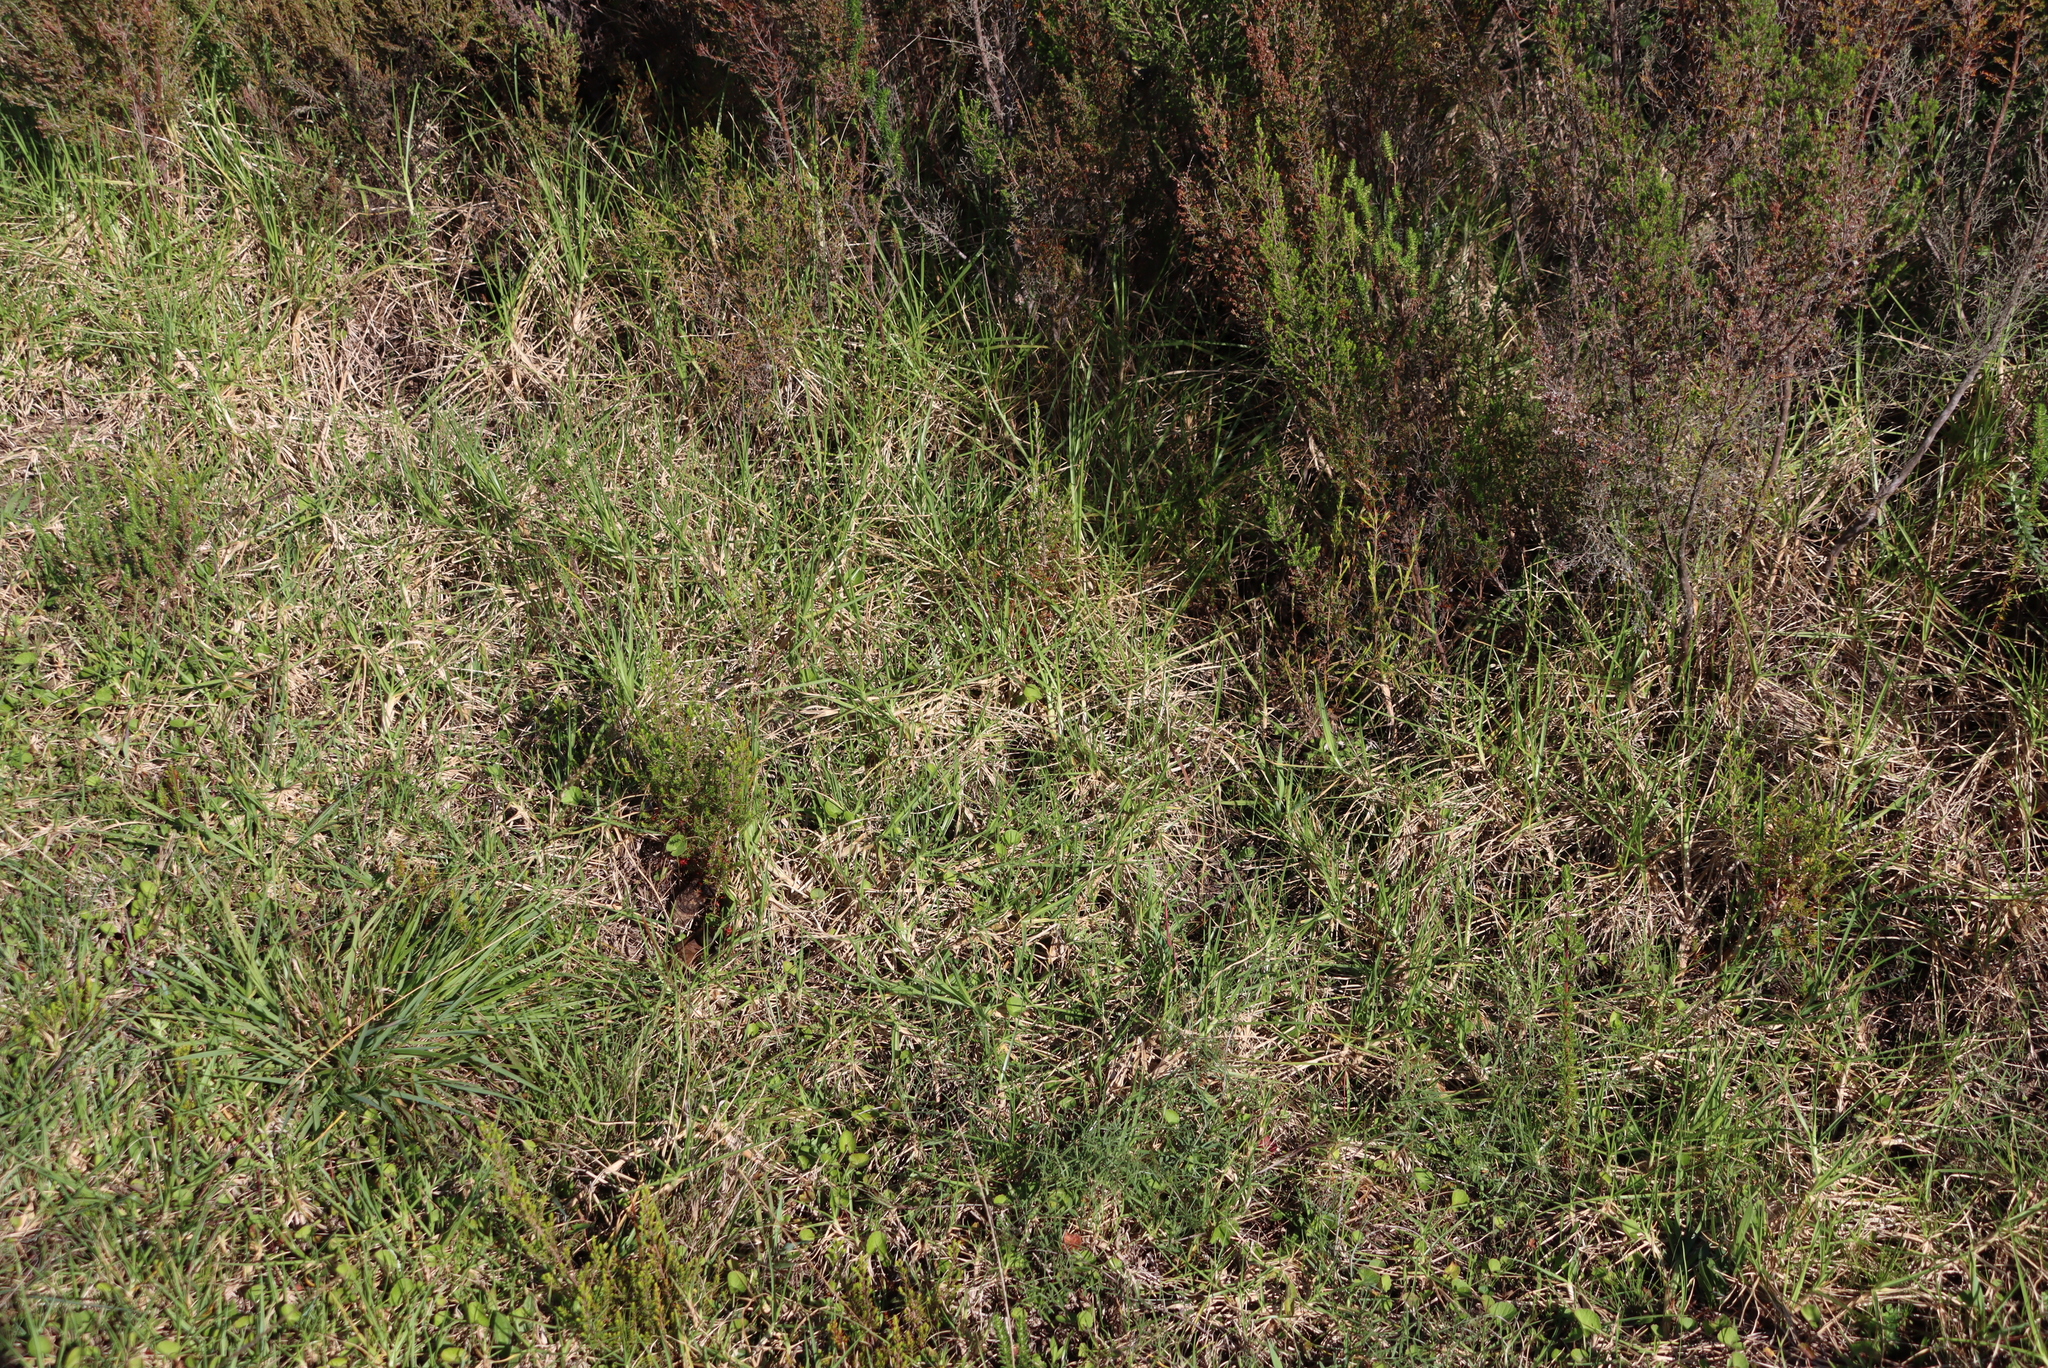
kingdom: Plantae
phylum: Tracheophyta
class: Liliopsida
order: Poales
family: Poaceae
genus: Cenchrus
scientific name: Cenchrus clandestinus
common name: Kikuyugrass
